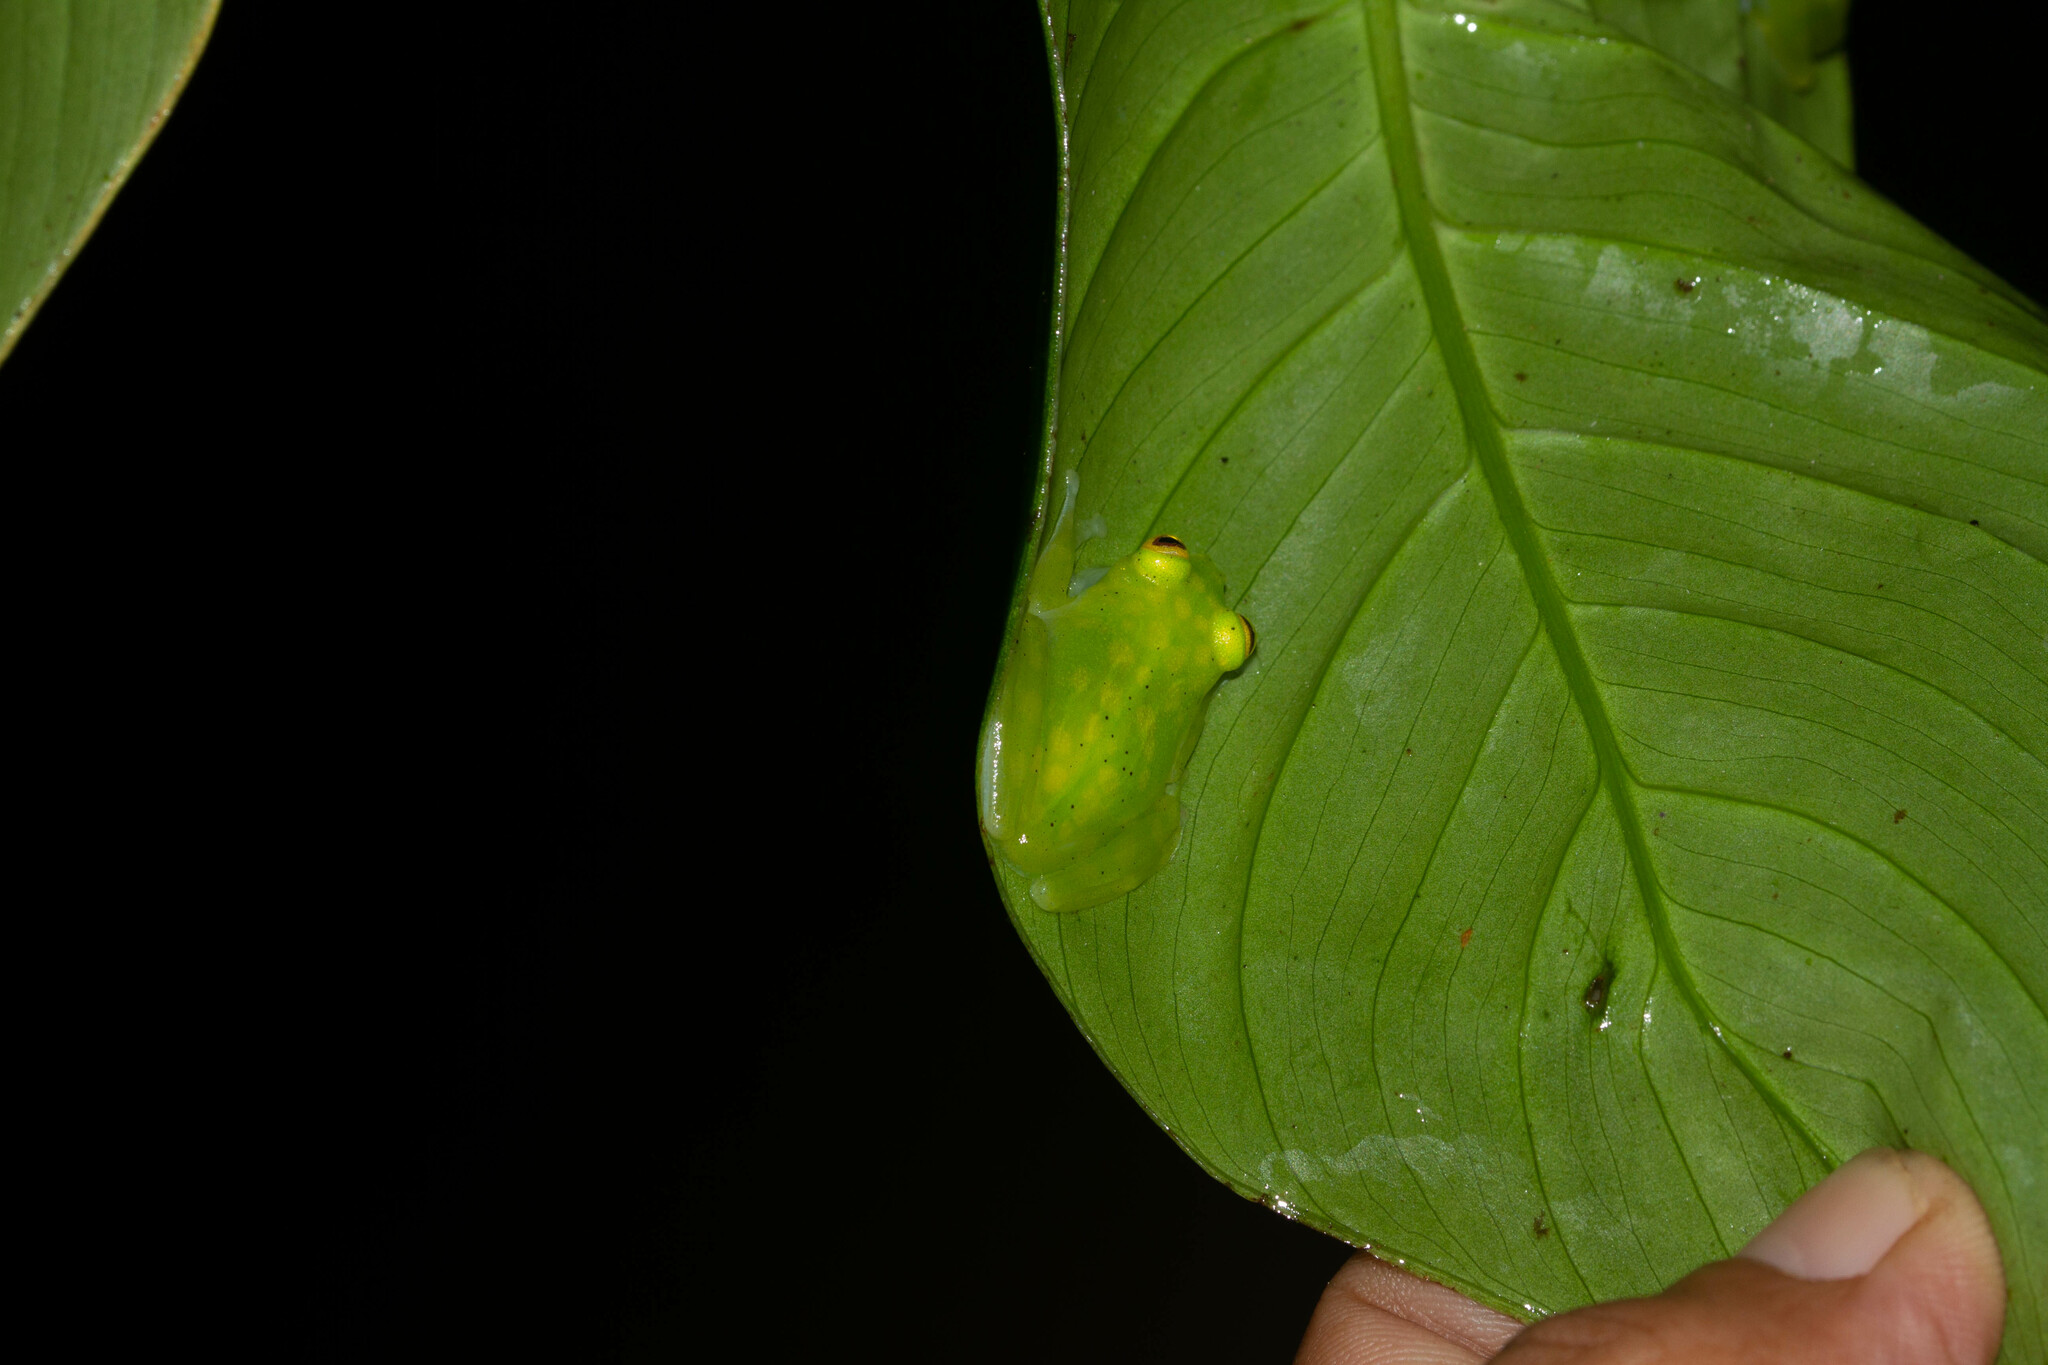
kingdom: Animalia
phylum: Chordata
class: Amphibia
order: Anura
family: Centrolenidae
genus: Hyalinobatrachium
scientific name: Hyalinobatrachium cappellei
